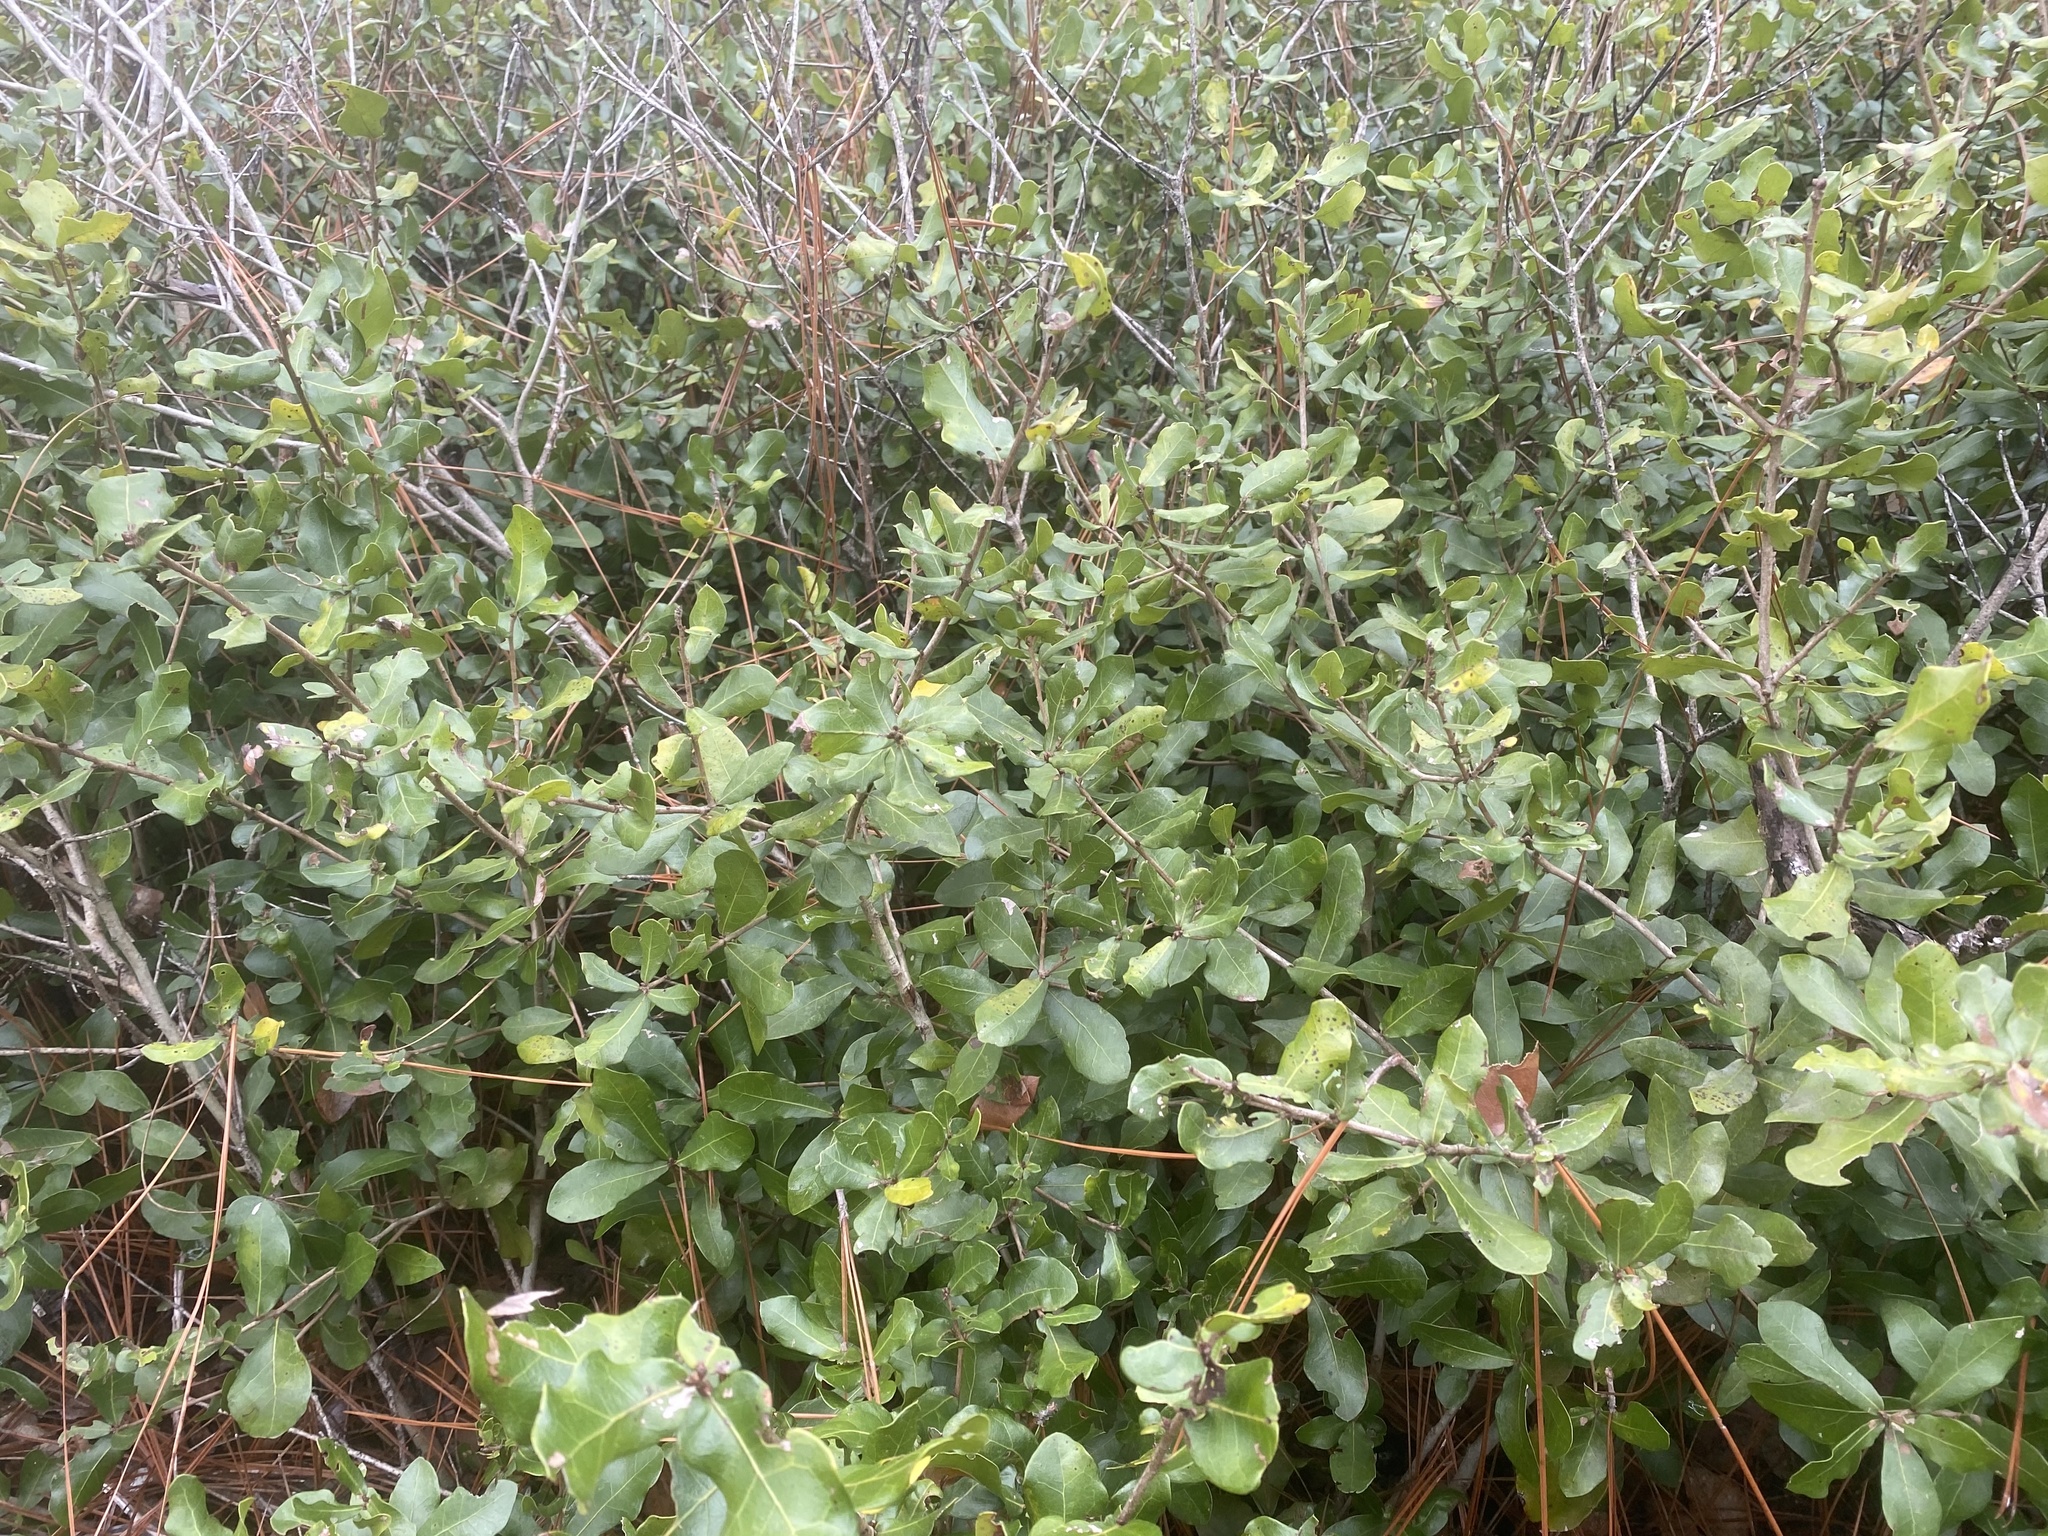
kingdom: Plantae
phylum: Tracheophyta
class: Magnoliopsida
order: Fagales
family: Fagaceae
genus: Quercus
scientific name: Quercus myrtifolia
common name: Myrtle oak
